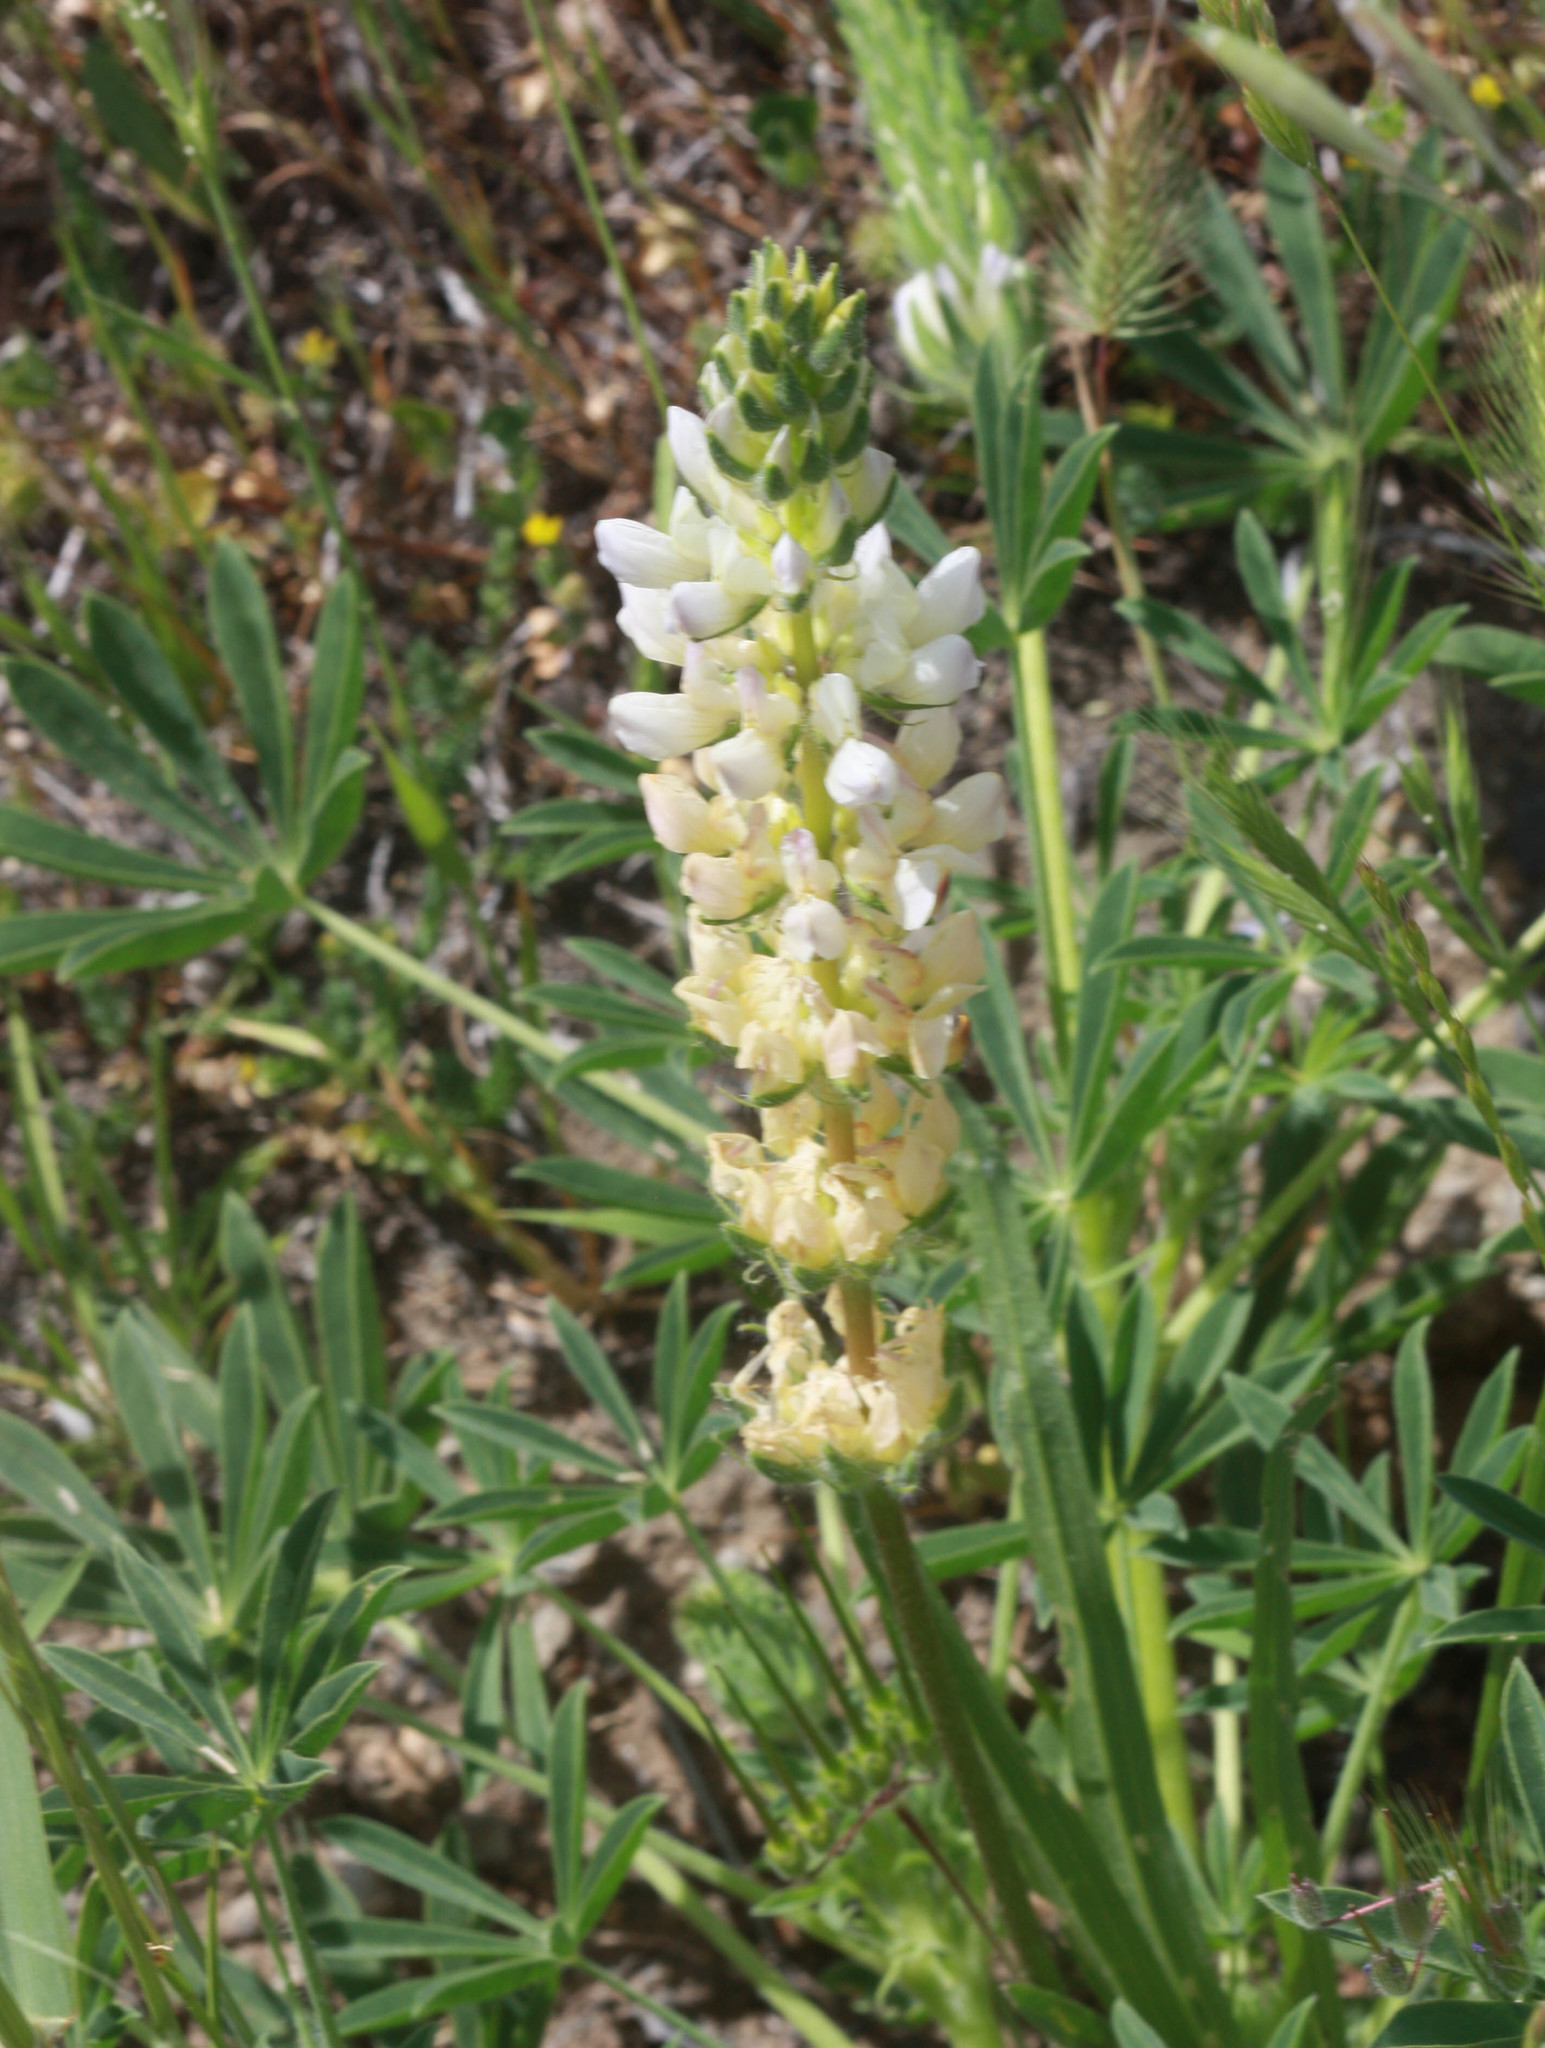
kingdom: Plantae
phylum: Tracheophyta
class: Magnoliopsida
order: Fabales
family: Fabaceae
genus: Lupinus
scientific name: Lupinus microcarpus
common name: Chick lupine
